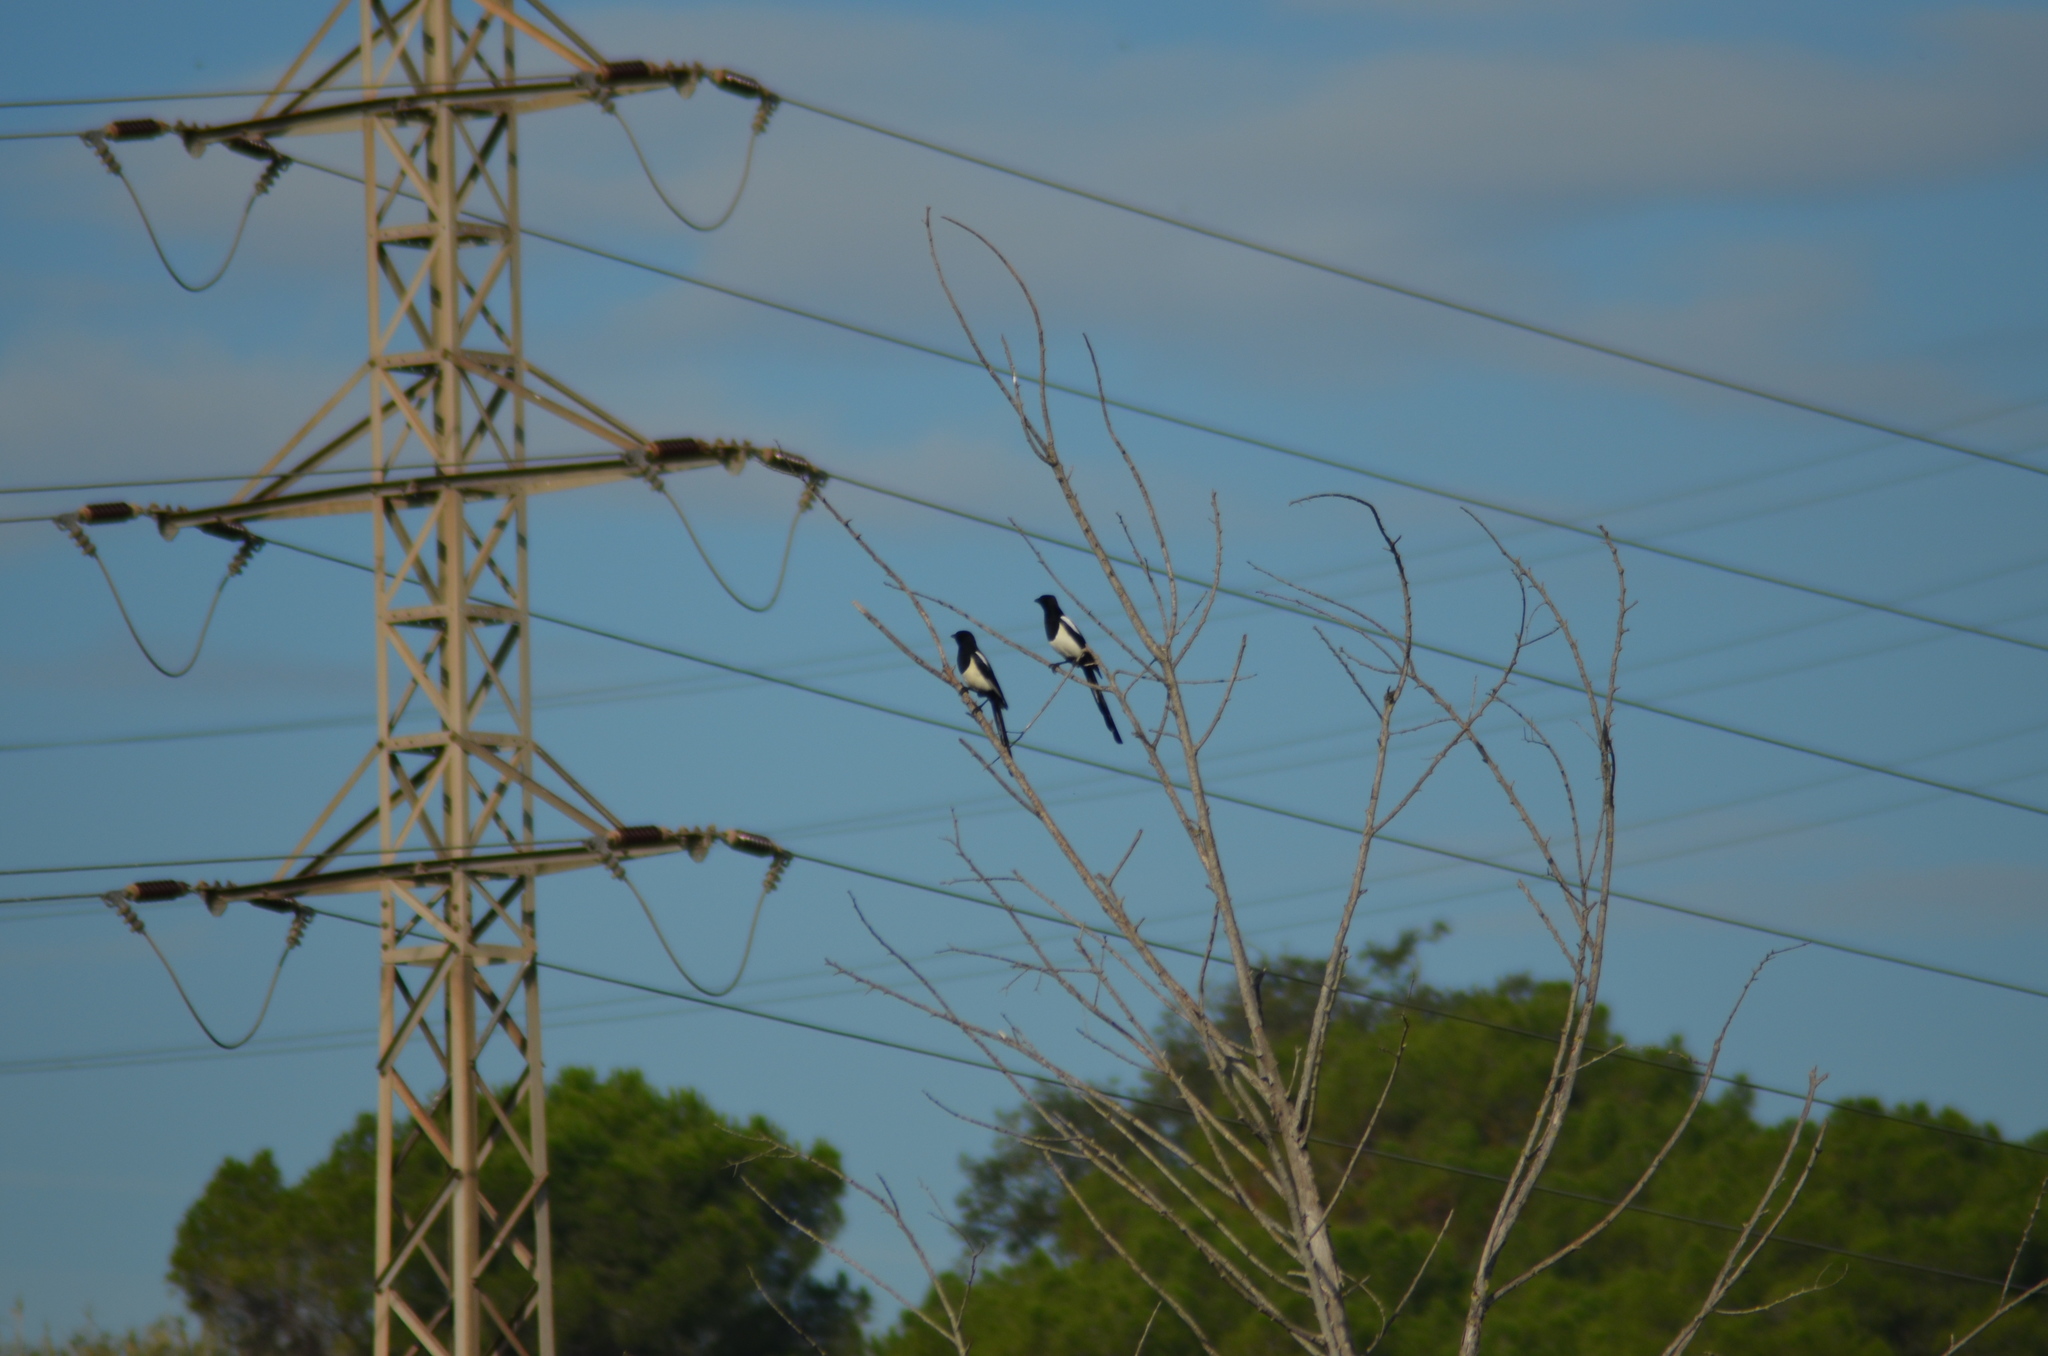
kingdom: Animalia
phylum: Chordata
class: Aves
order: Passeriformes
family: Corvidae
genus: Pica
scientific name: Pica pica
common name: Eurasian magpie
